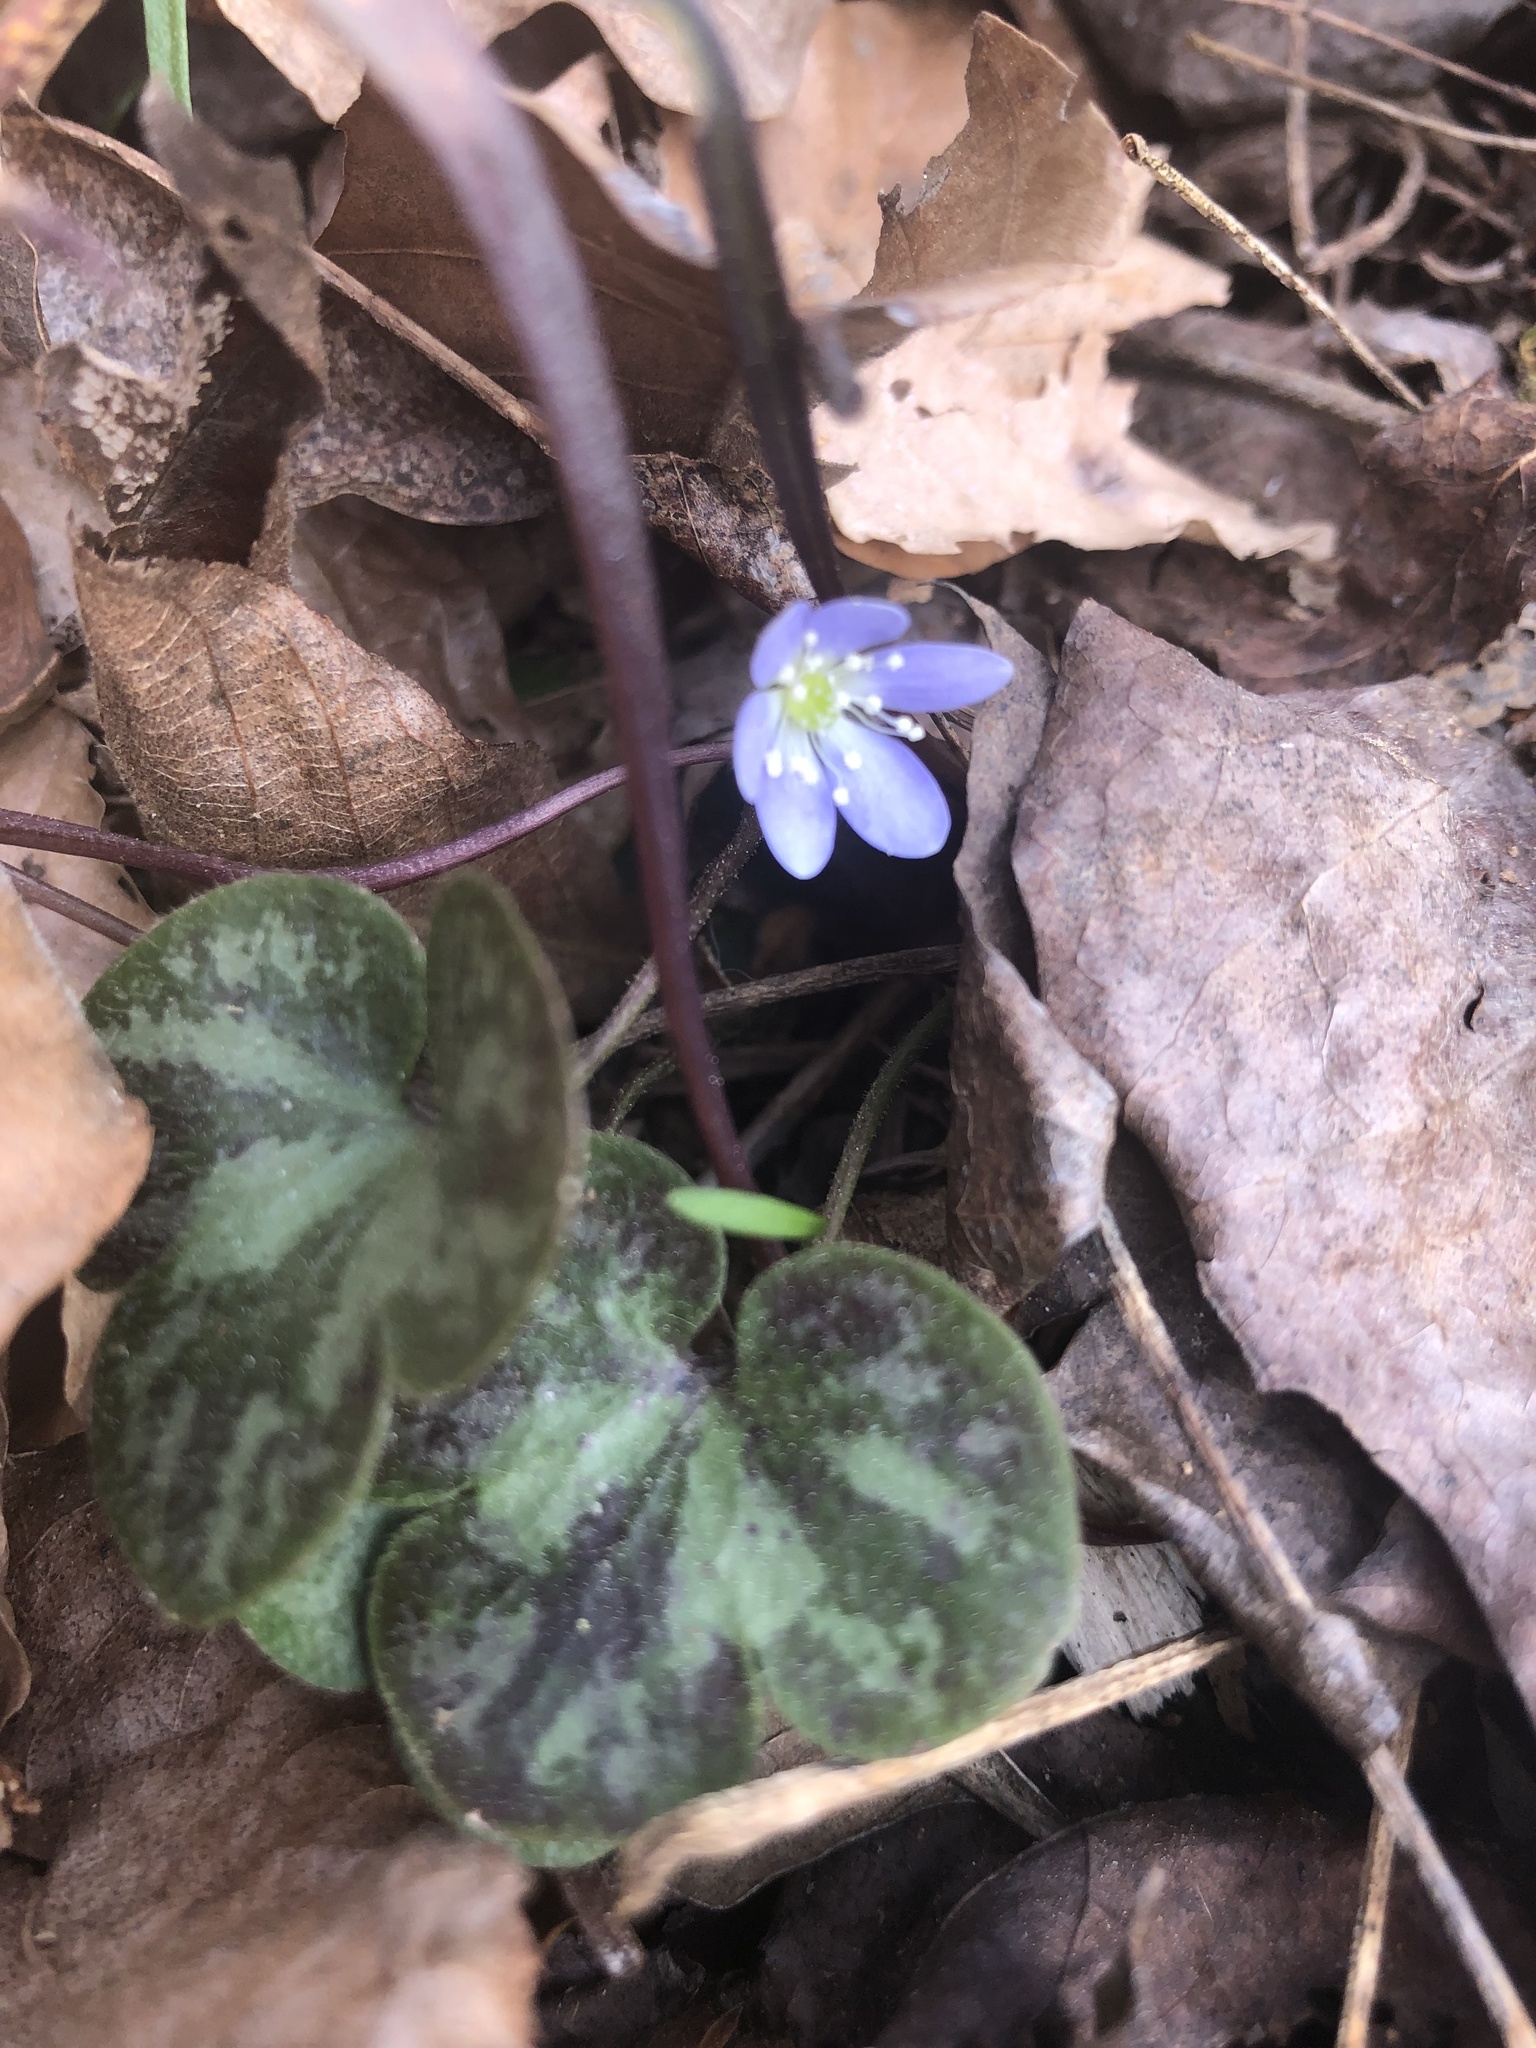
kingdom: Plantae
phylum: Tracheophyta
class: Magnoliopsida
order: Ranunculales
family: Ranunculaceae
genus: Hepatica
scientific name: Hepatica americana
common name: American hepatica
